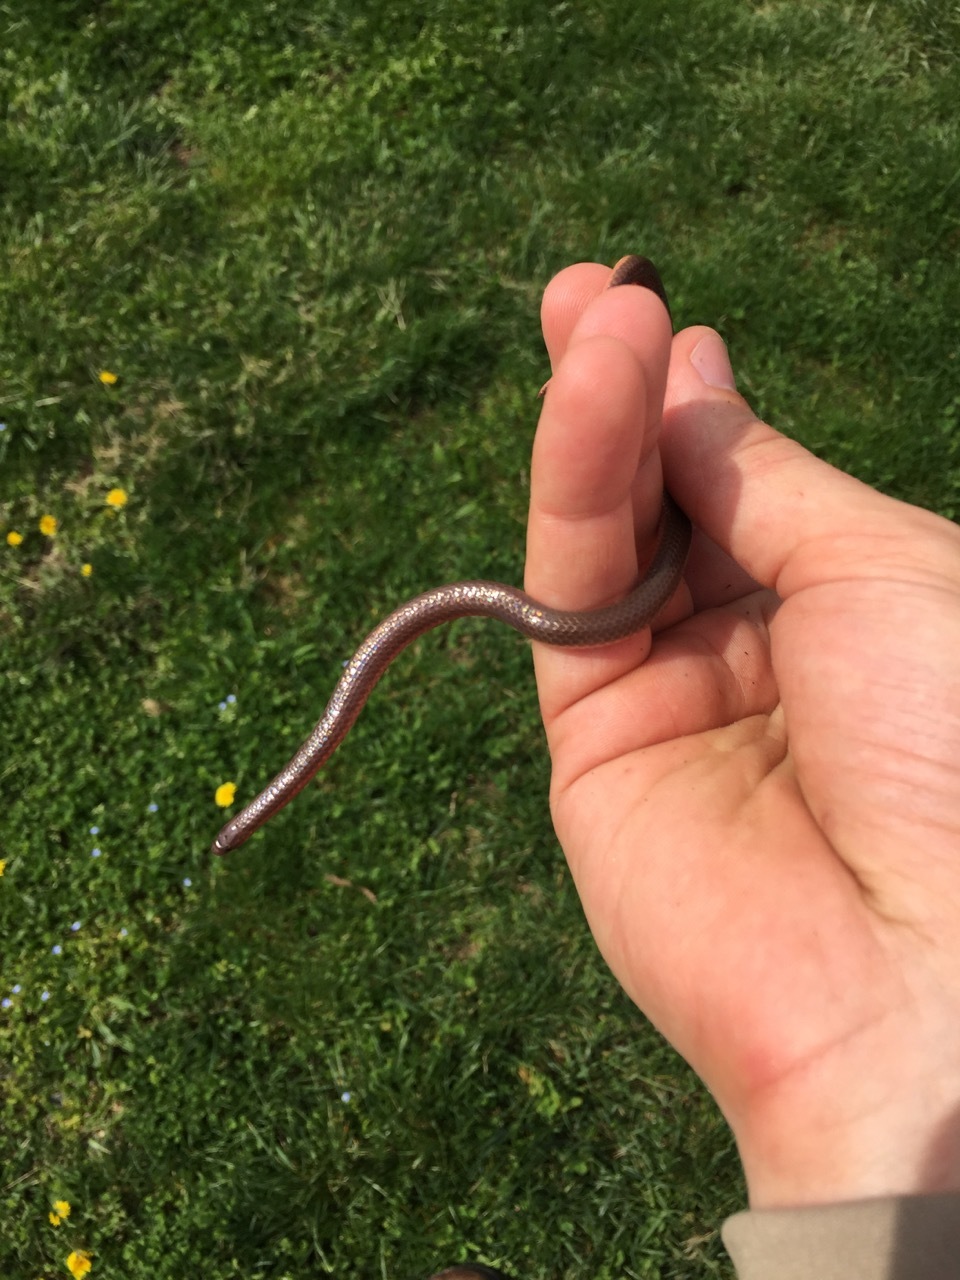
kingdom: Animalia
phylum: Chordata
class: Squamata
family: Colubridae
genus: Carphophis
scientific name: Carphophis amoenus
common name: Eastern worm snake
